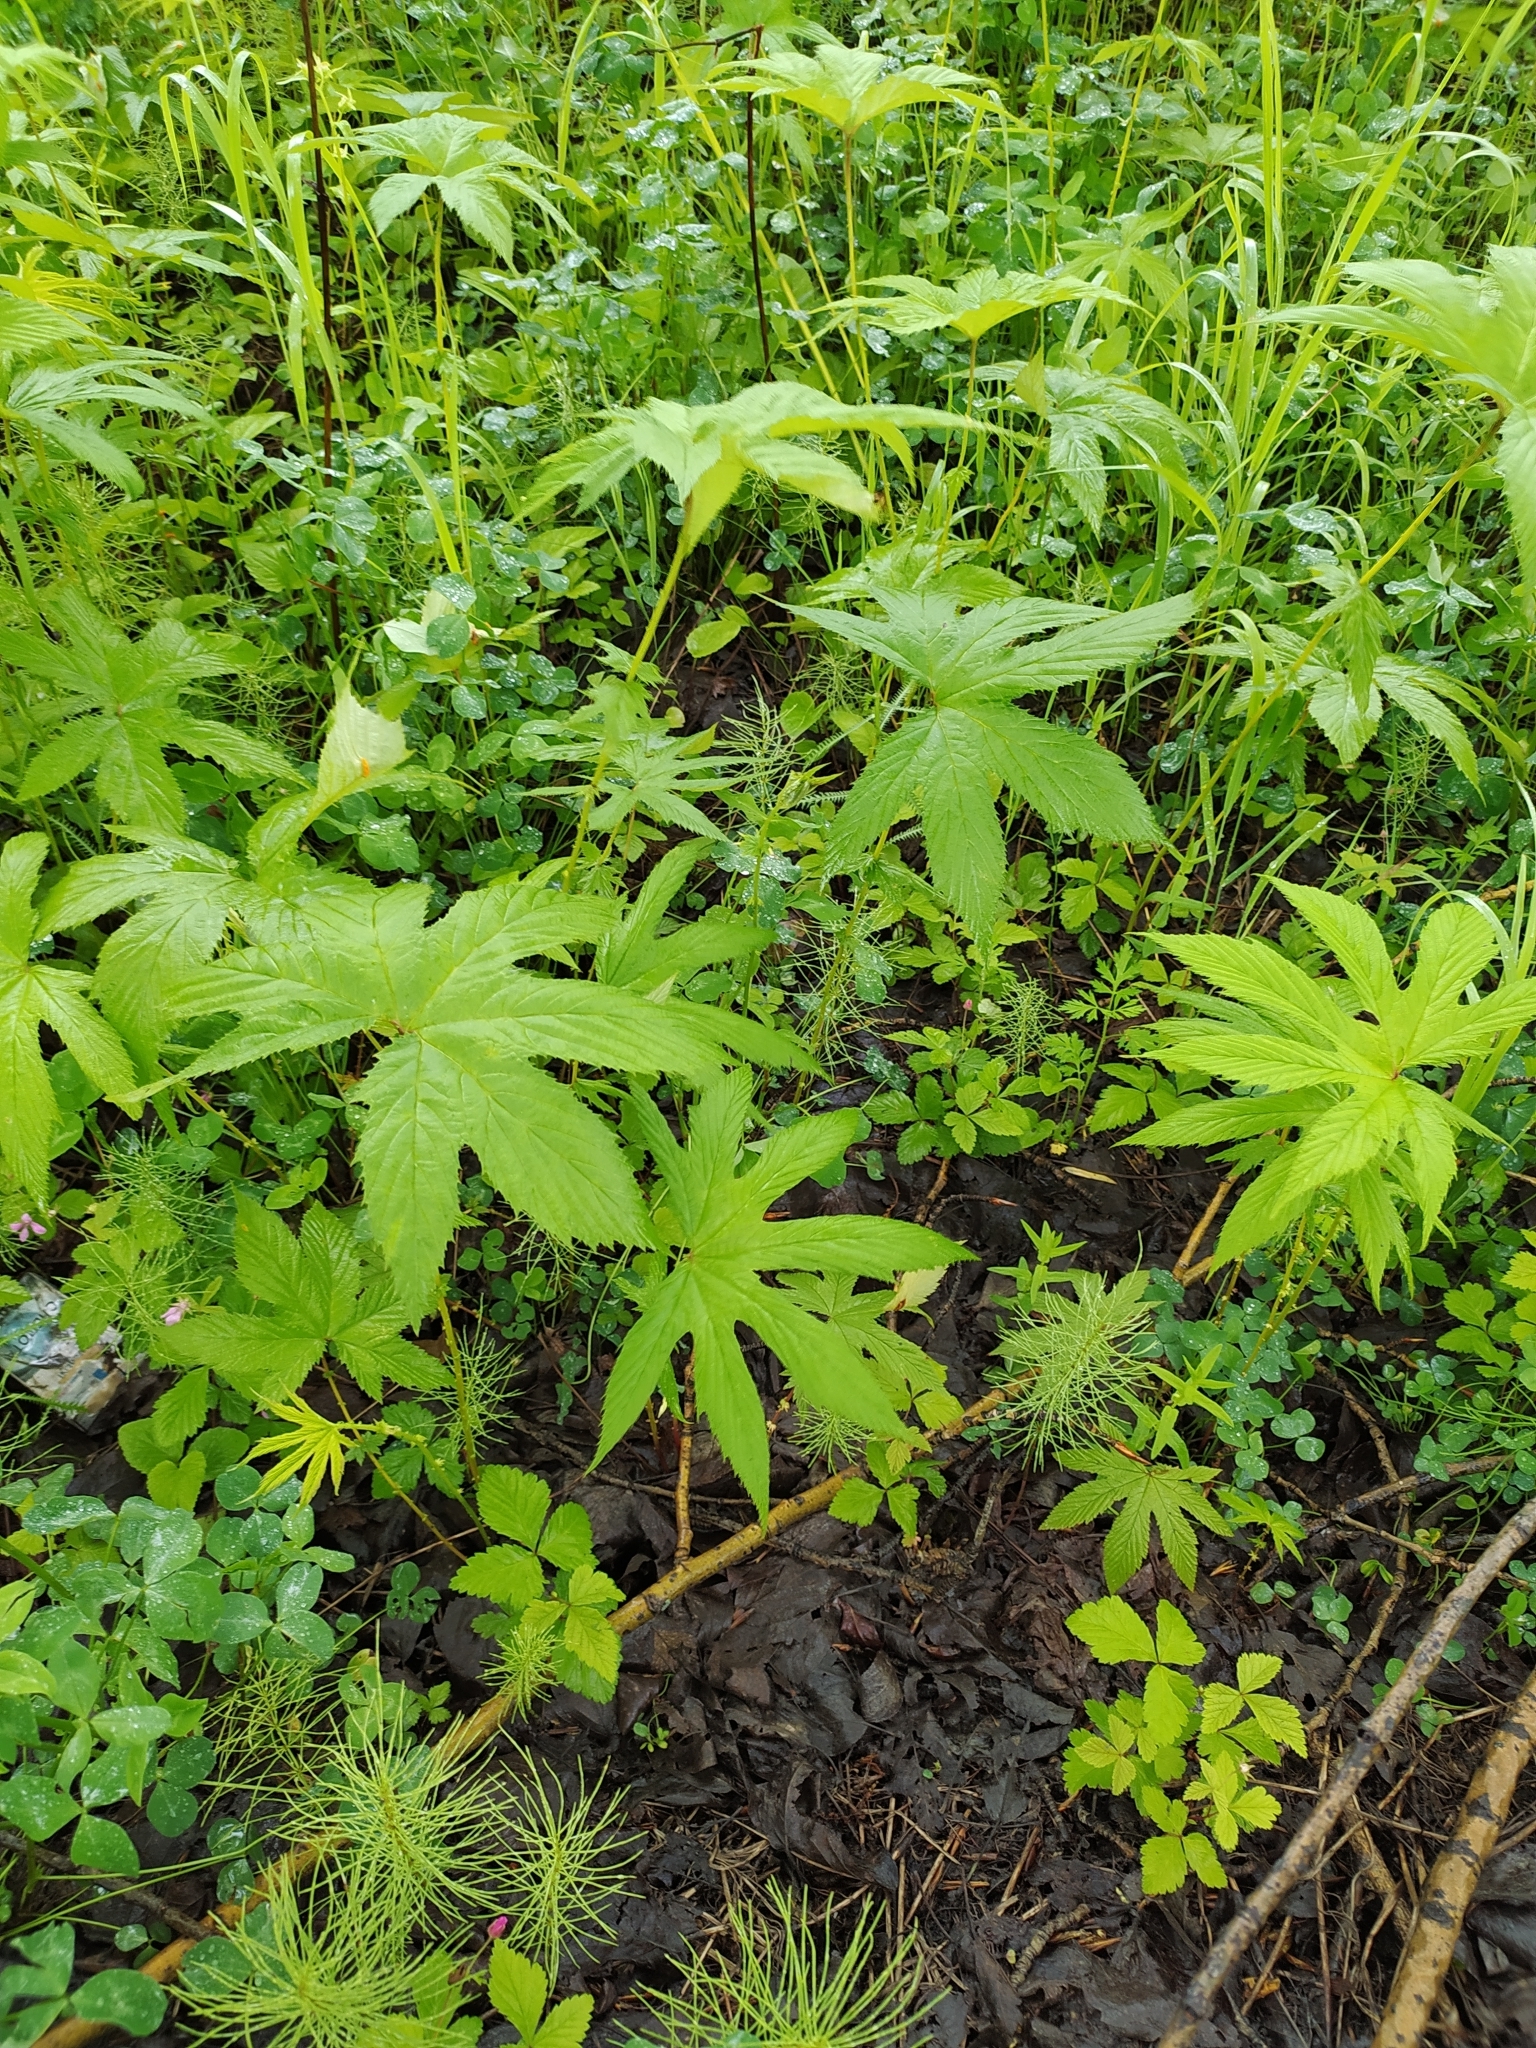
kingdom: Plantae
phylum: Tracheophyta
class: Magnoliopsida
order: Rosales
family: Rosaceae
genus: Filipendula
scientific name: Filipendula digitata
